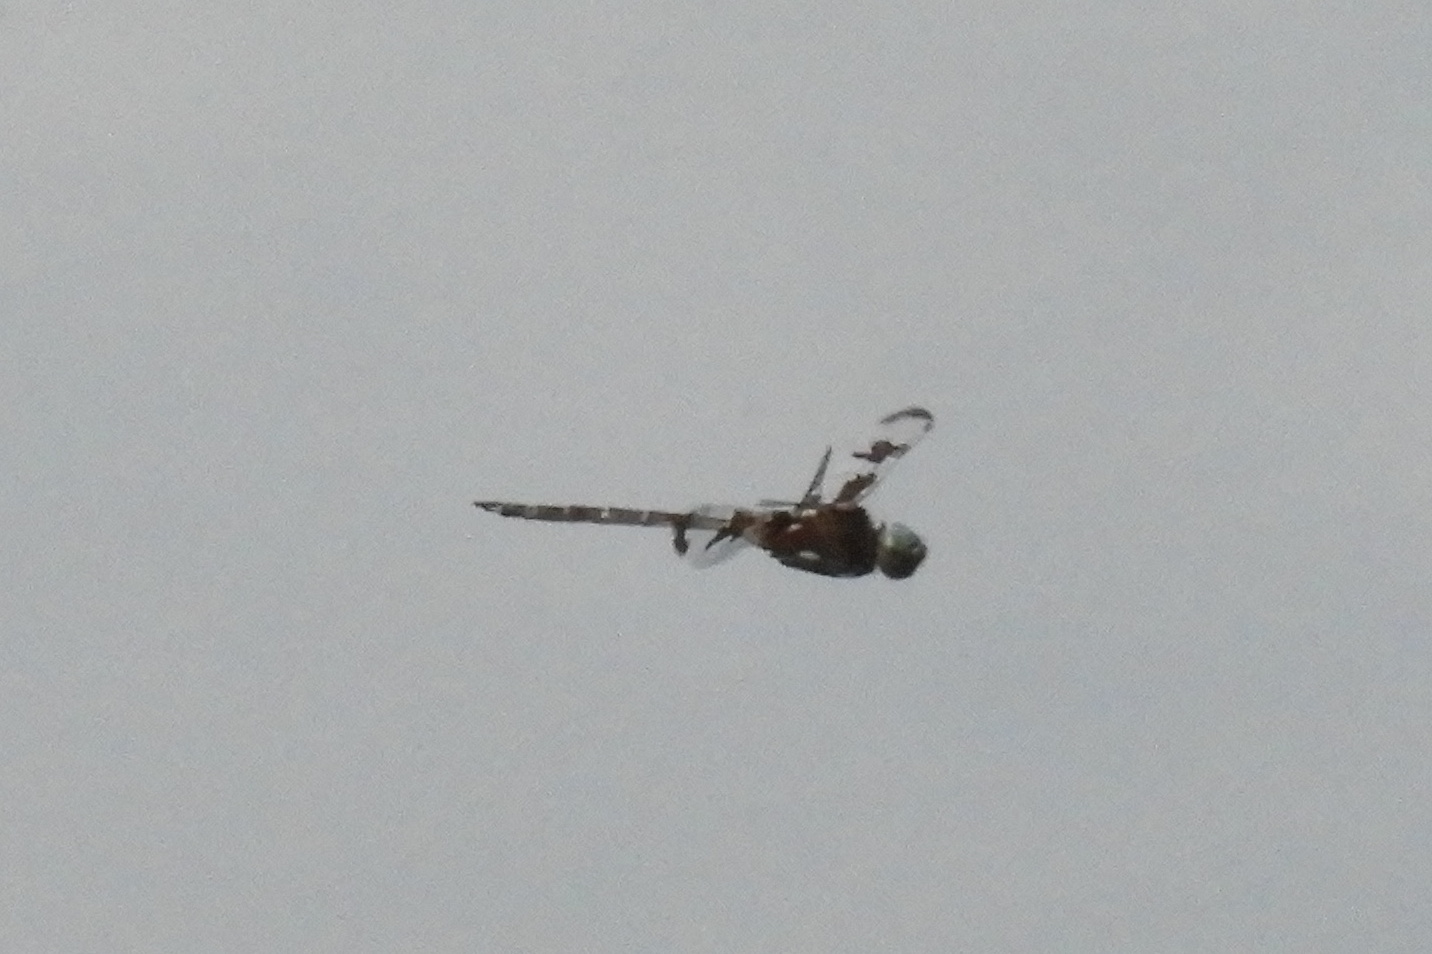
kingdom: Animalia
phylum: Arthropoda
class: Insecta
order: Odonata
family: Corduliidae
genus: Epitheca
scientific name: Epitheca princeps
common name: Prince baskettail
